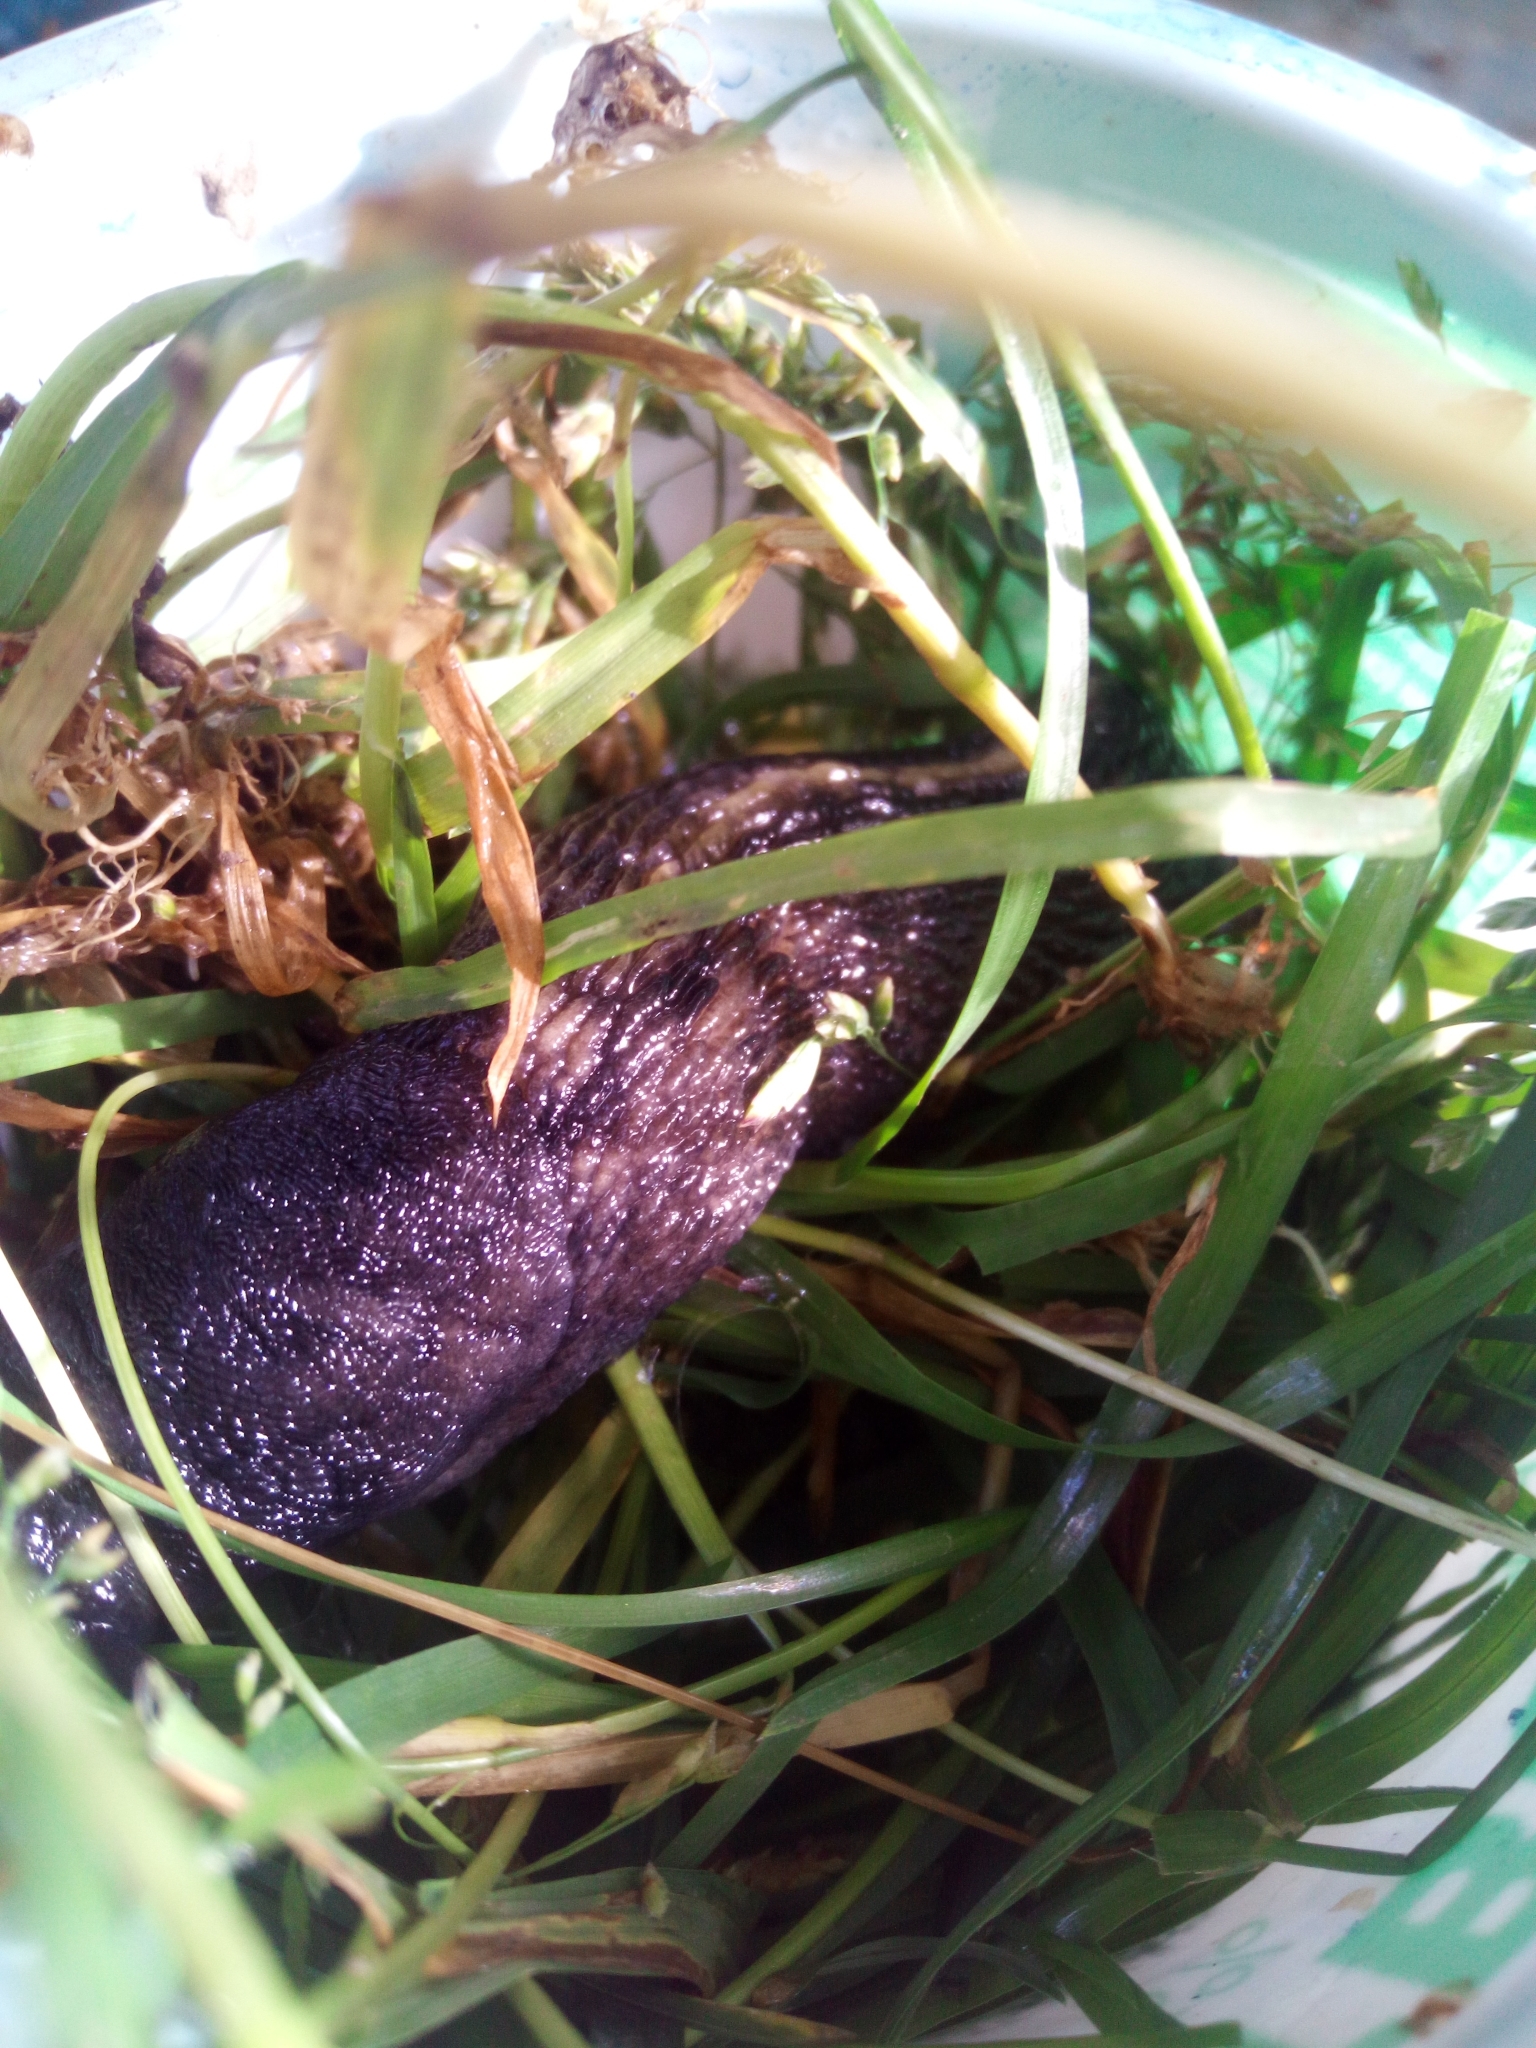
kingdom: Animalia
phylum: Mollusca
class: Gastropoda
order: Stylommatophora
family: Limacidae
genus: Limax
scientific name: Limax cinereoniger
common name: Ash-black slug
